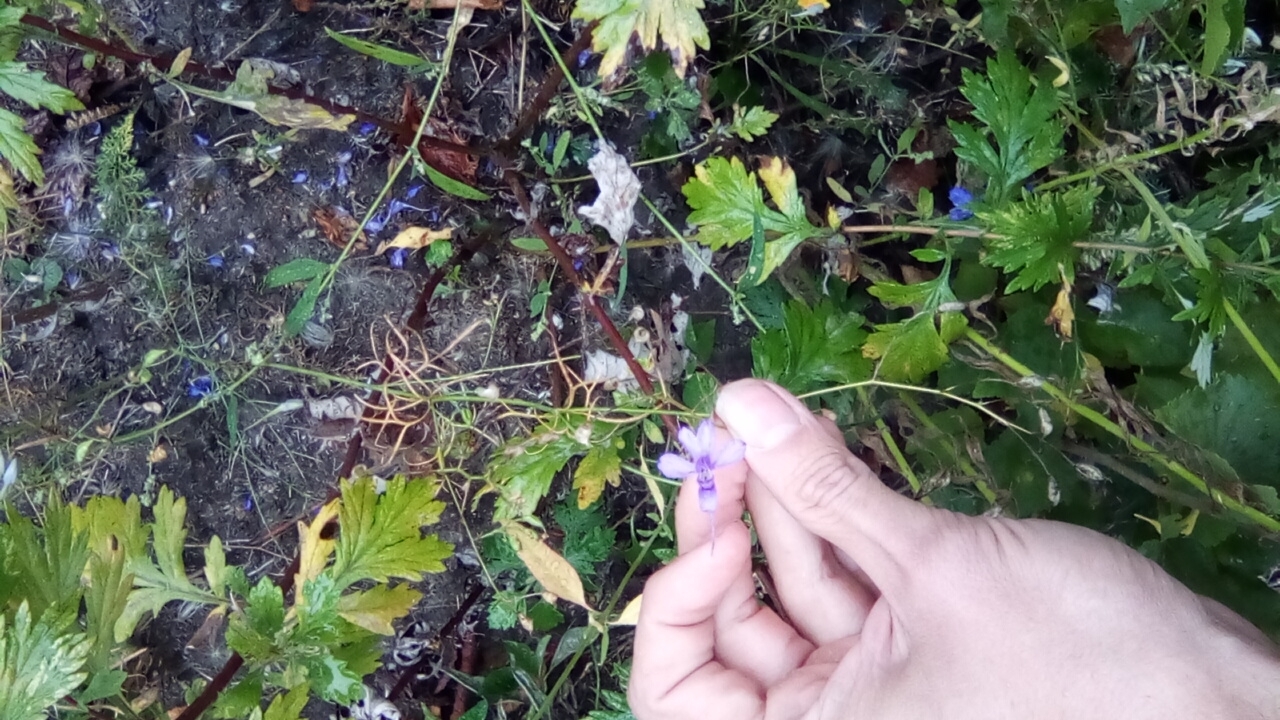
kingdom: Plantae
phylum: Tracheophyta
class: Magnoliopsida
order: Ranunculales
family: Ranunculaceae
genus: Delphinium
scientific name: Delphinium consolida
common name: Branching larkspur
